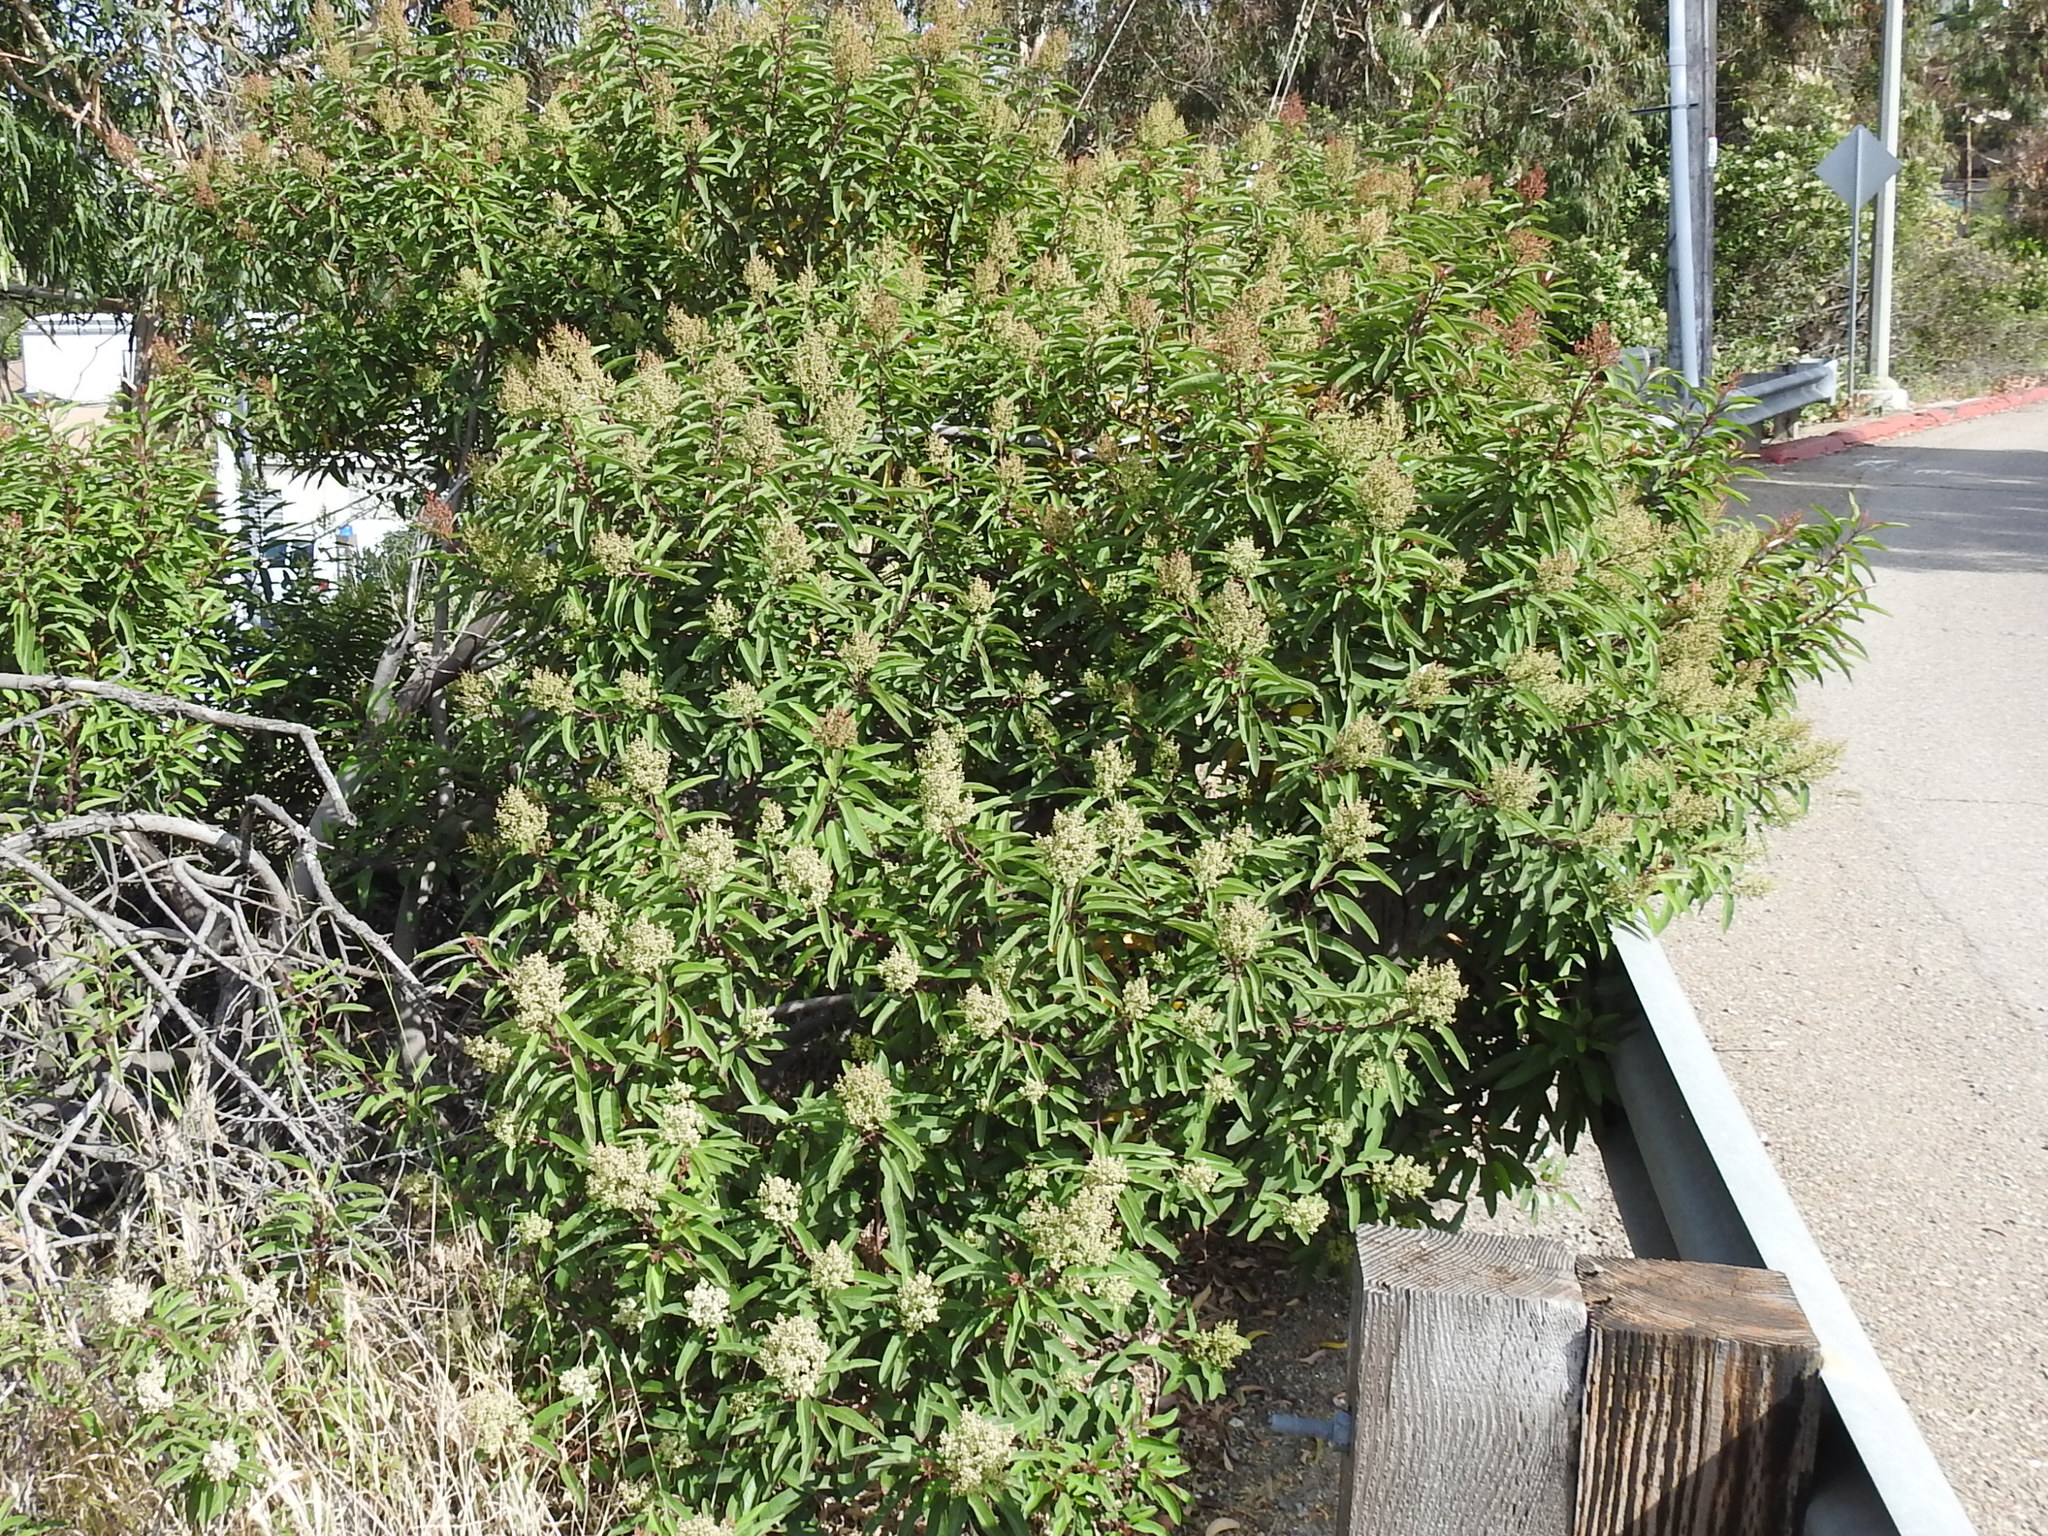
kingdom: Plantae
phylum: Tracheophyta
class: Magnoliopsida
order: Sapindales
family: Anacardiaceae
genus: Malosma
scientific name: Malosma laurina
